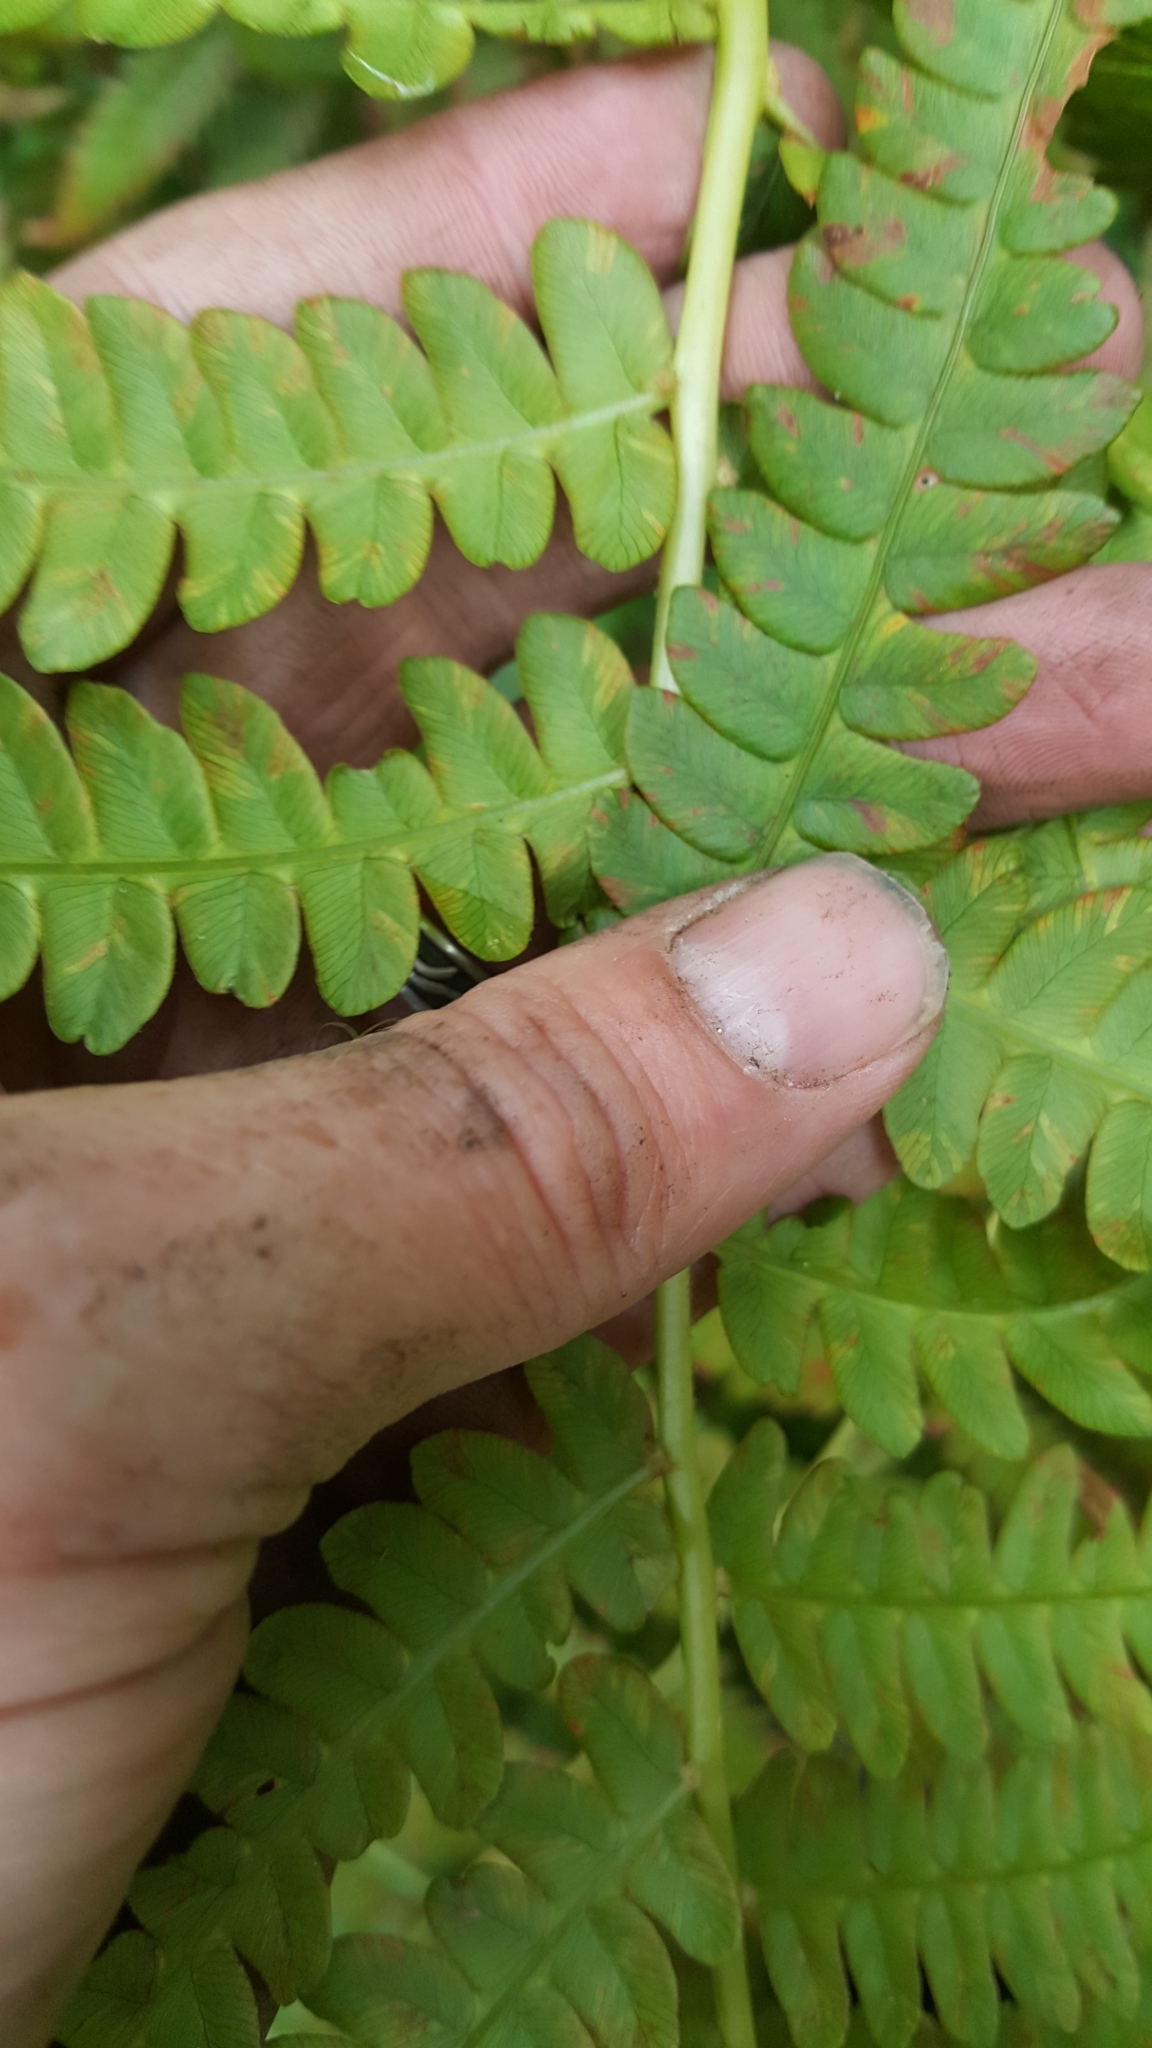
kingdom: Plantae
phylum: Tracheophyta
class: Polypodiopsida
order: Osmundales
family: Osmundaceae
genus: Osmundastrum
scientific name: Osmundastrum cinnamomeum
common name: Cinnamon fern
